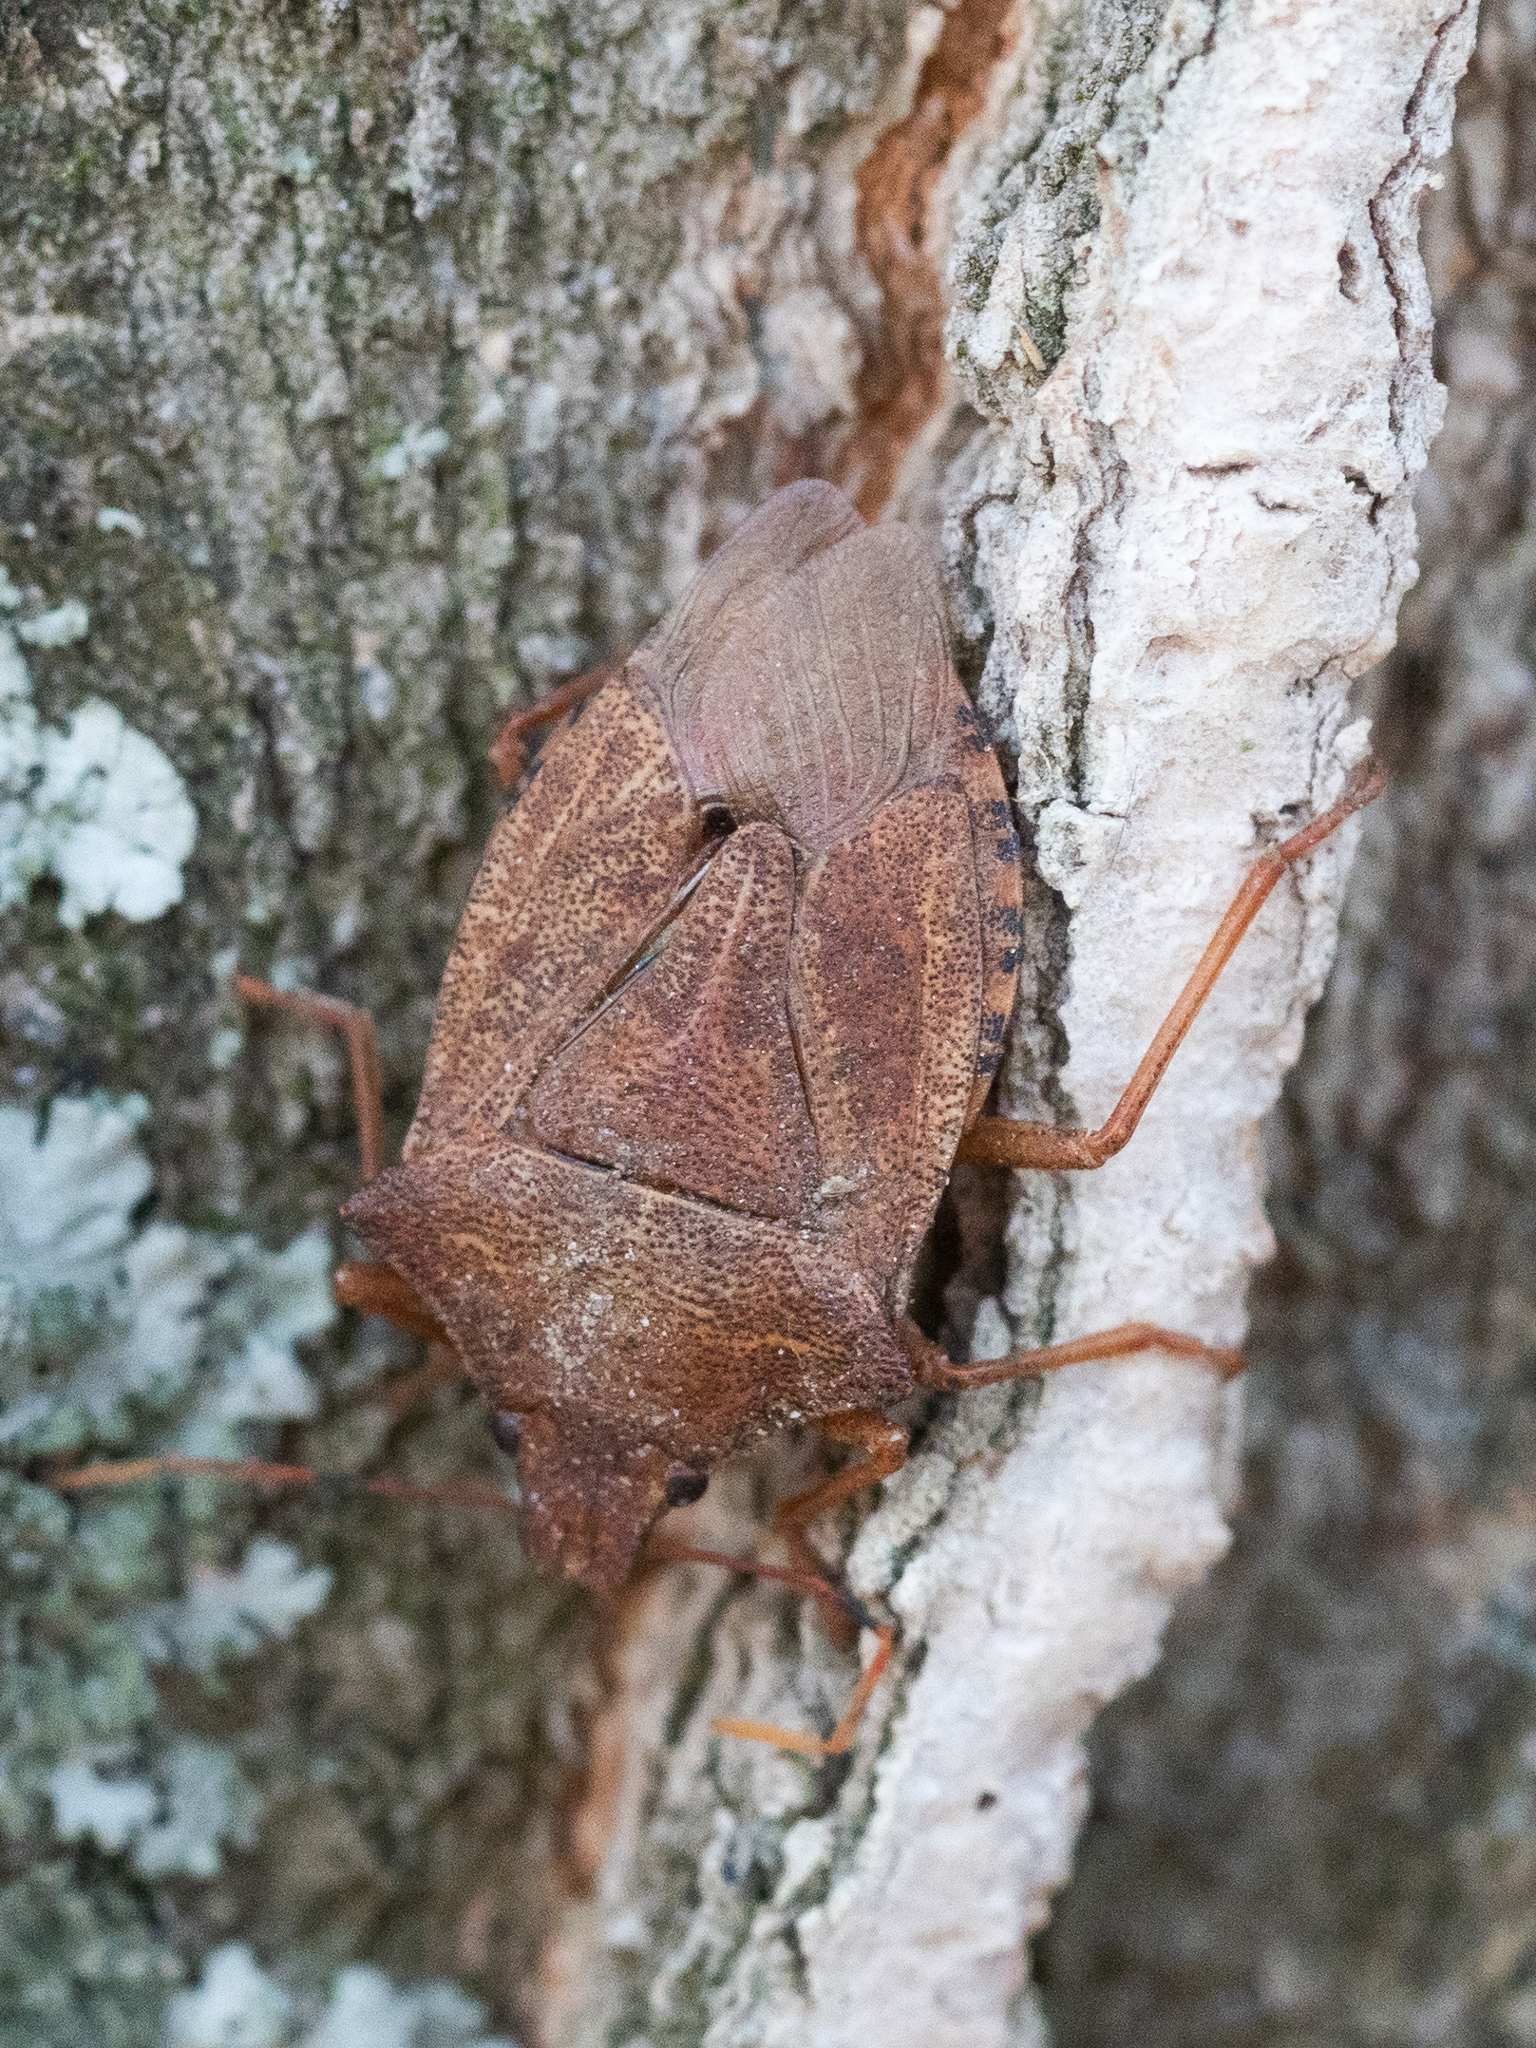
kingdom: Animalia
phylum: Arthropoda
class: Insecta
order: Hemiptera
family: Pentatomidae
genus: Arma
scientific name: Arma custos
